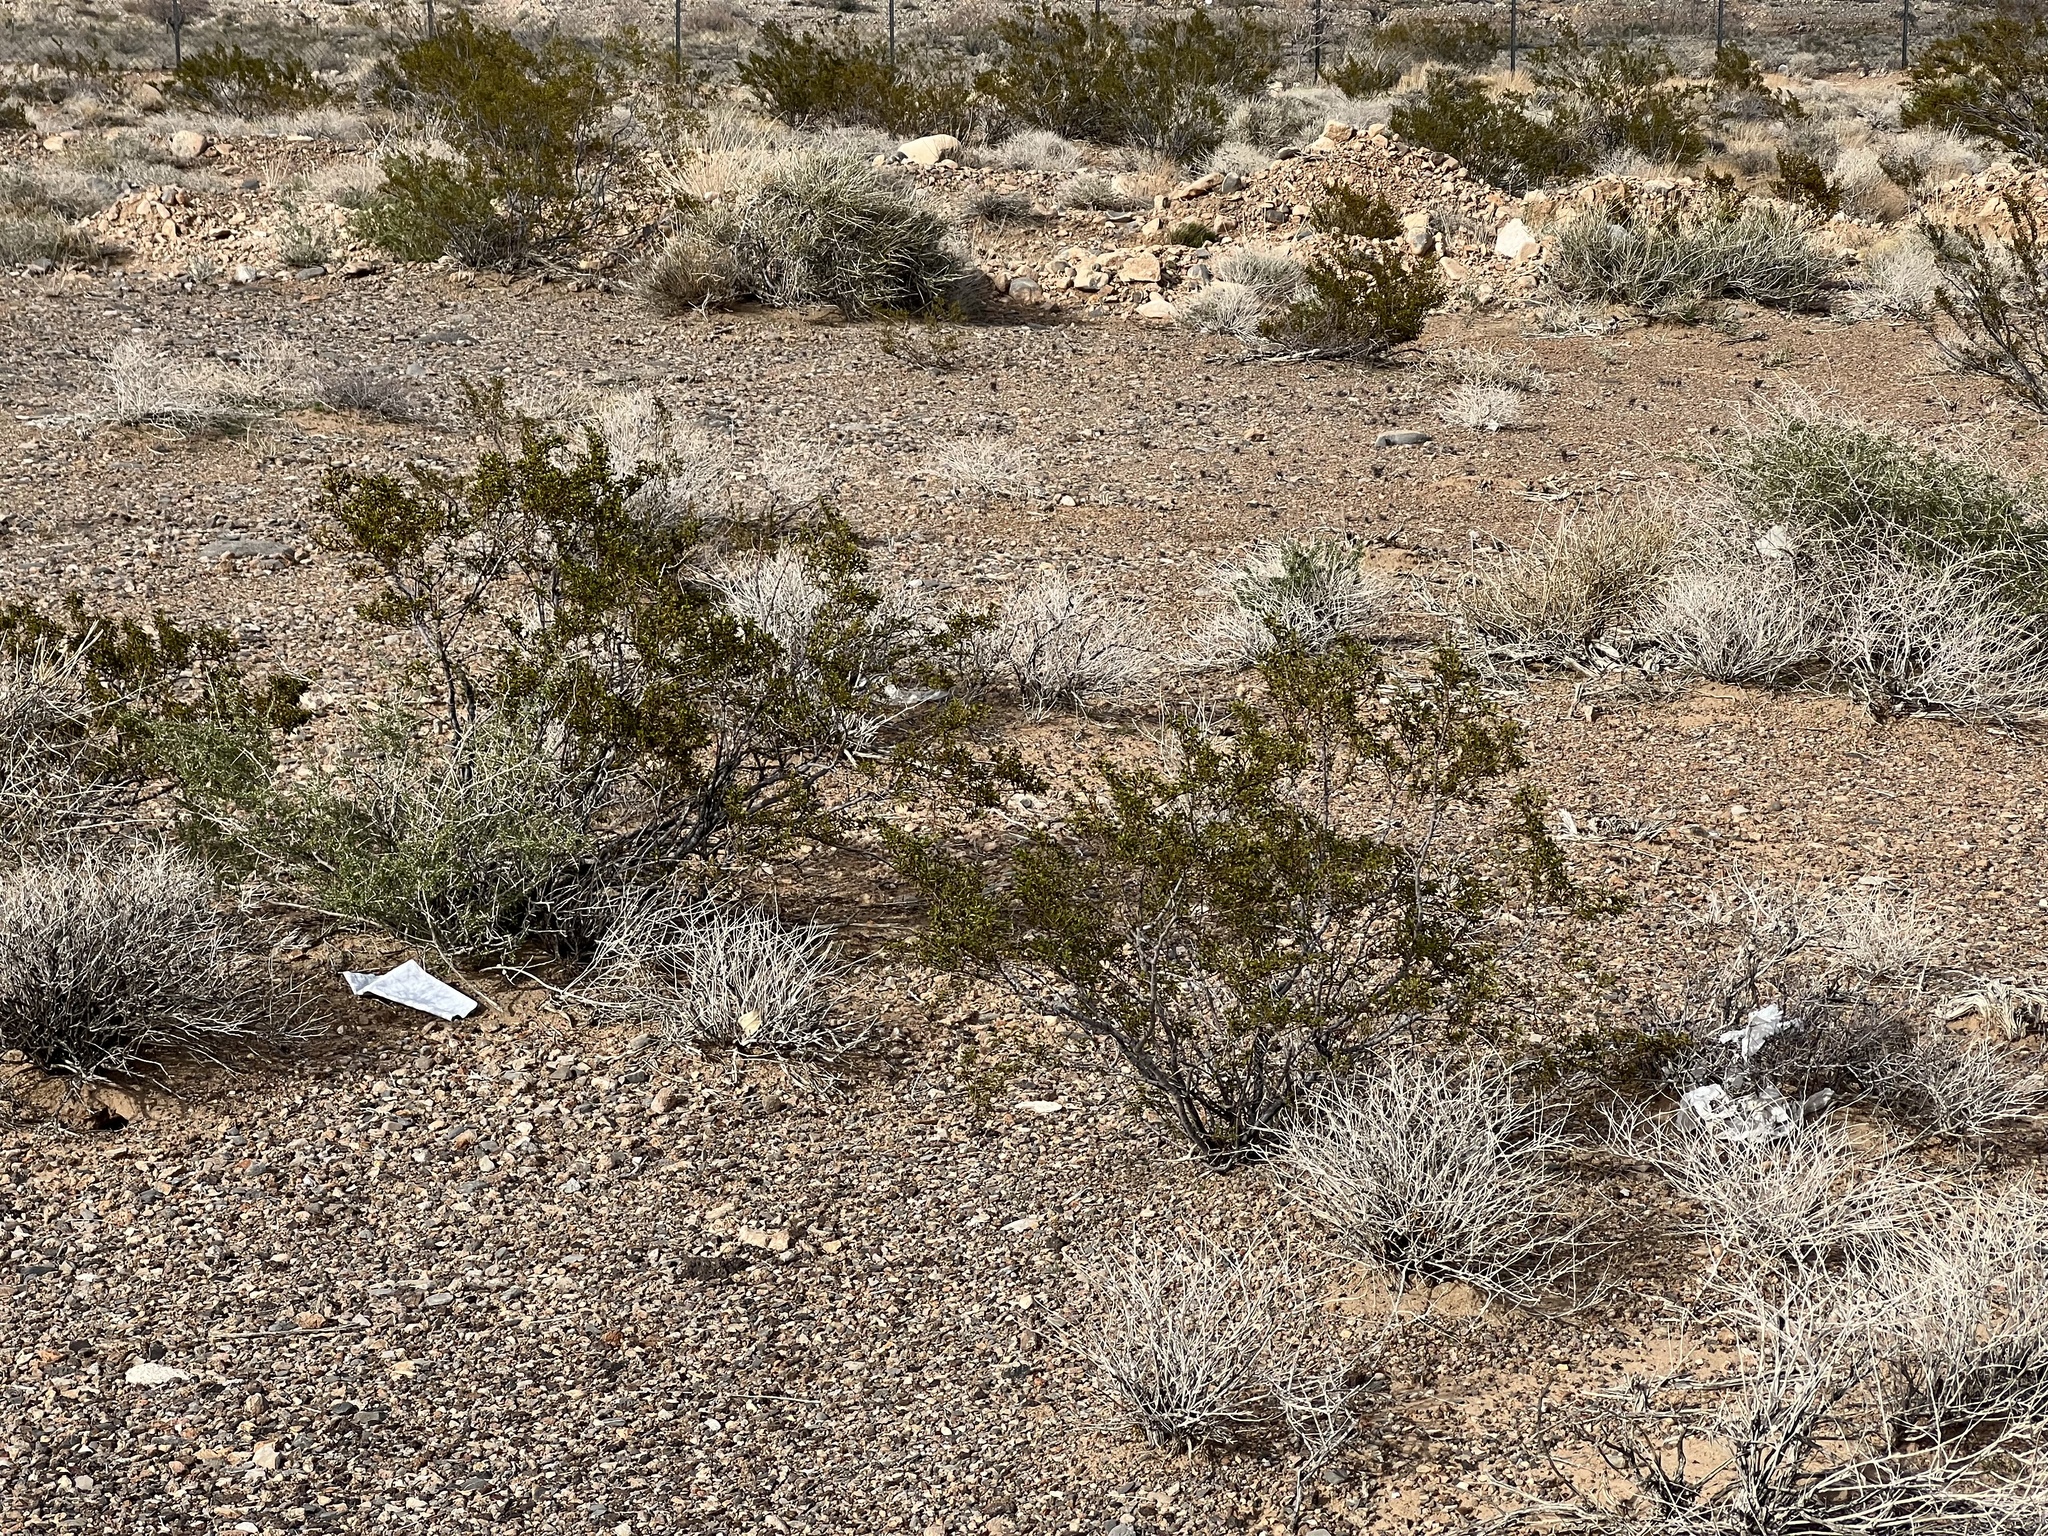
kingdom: Plantae
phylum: Tracheophyta
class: Magnoliopsida
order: Zygophyllales
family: Zygophyllaceae
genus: Larrea
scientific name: Larrea tridentata
